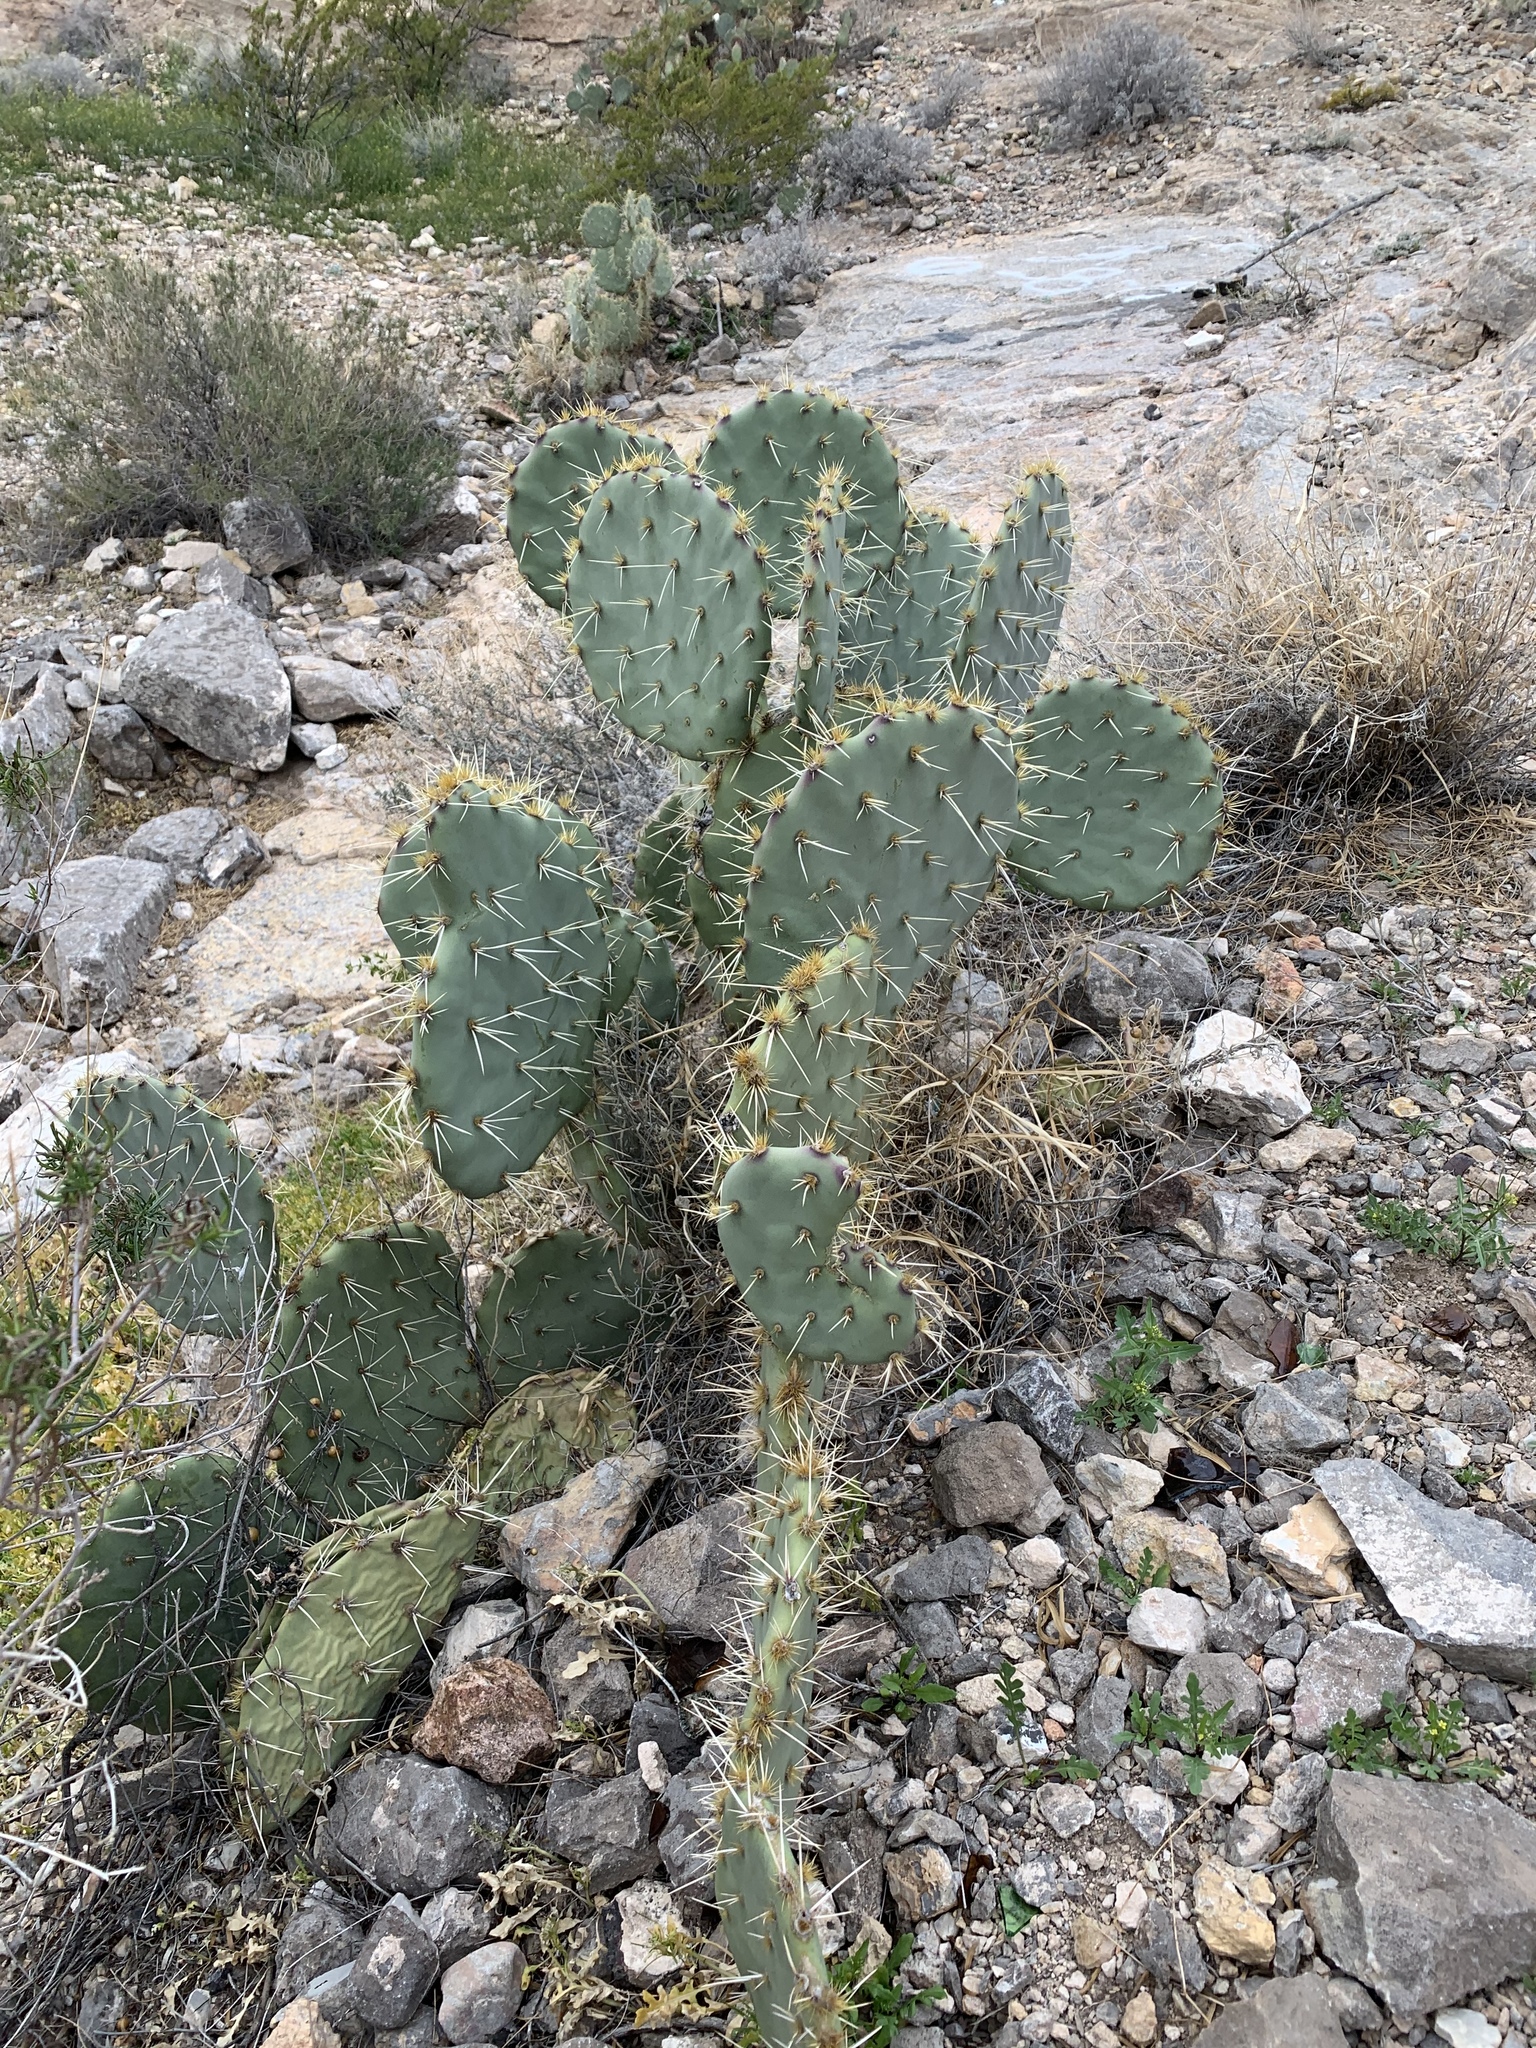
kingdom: Plantae
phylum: Tracheophyta
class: Magnoliopsida
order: Caryophyllales
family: Cactaceae
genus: Opuntia
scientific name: Opuntia phaeacantha
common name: New mexico prickly-pear
